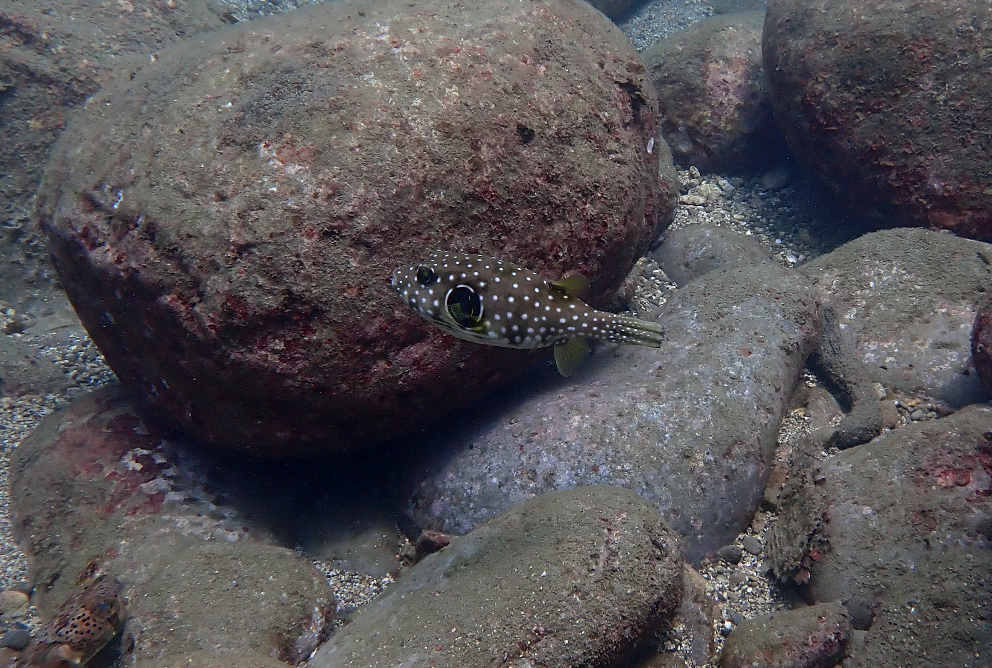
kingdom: Animalia
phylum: Chordata
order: Tetraodontiformes
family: Tetraodontidae
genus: Arothron
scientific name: Arothron hispidus
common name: Stripebelly puffer
